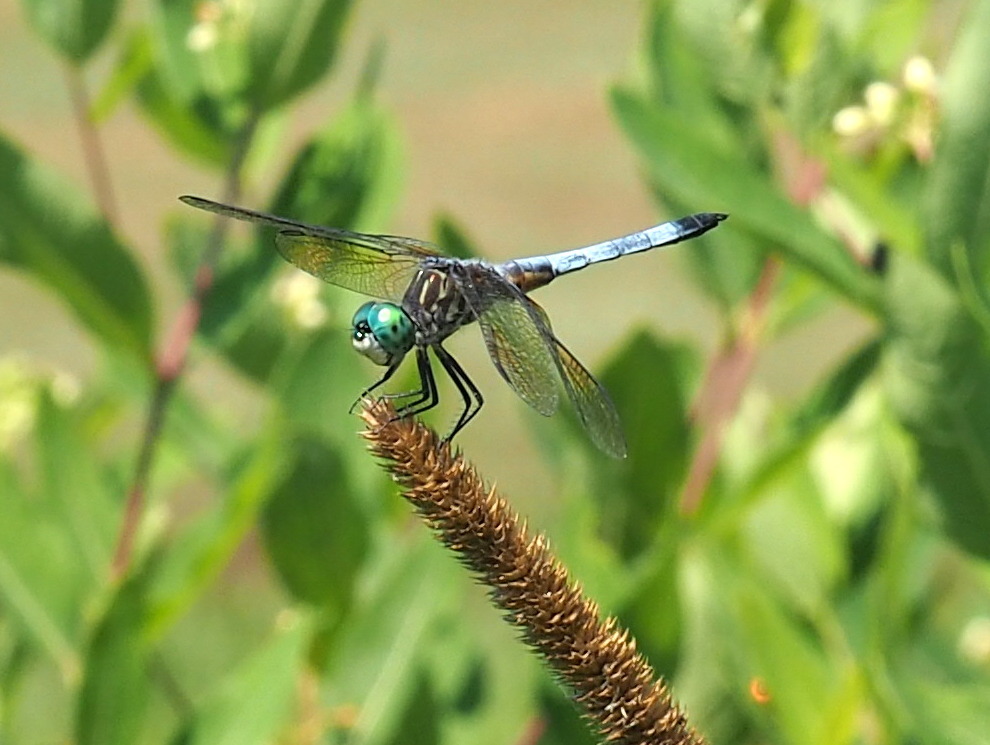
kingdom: Animalia
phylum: Arthropoda
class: Insecta
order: Odonata
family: Libellulidae
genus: Pachydiplax
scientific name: Pachydiplax longipennis
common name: Blue dasher
